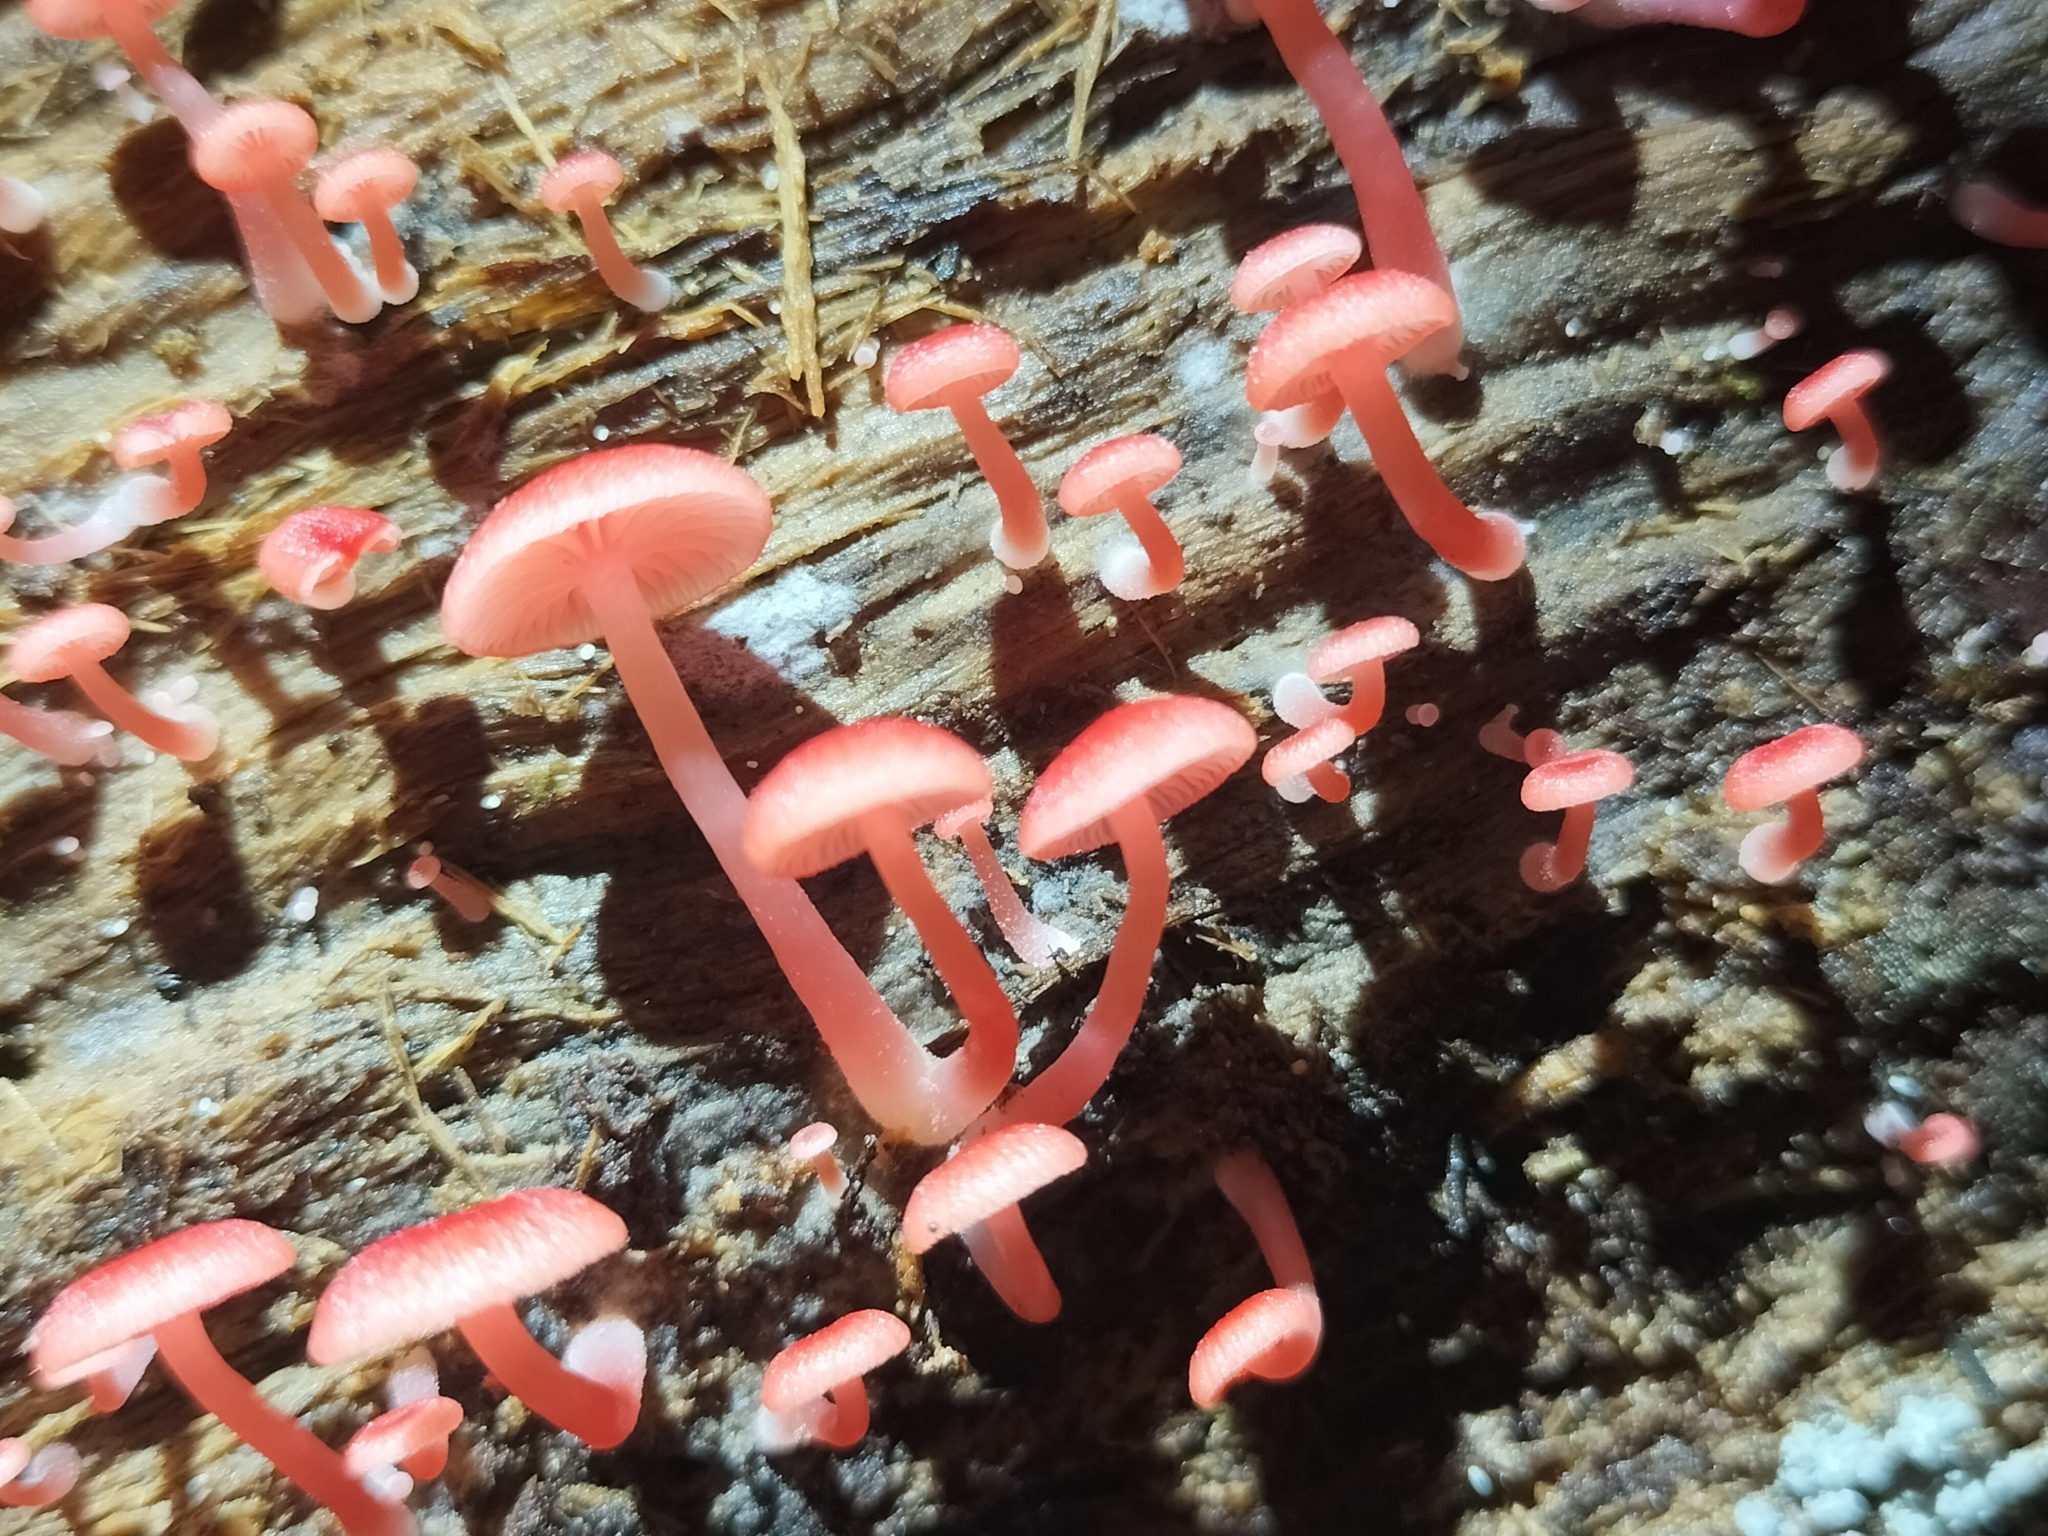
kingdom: Fungi
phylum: Basidiomycota
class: Agaricomycetes
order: Agaricales
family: Mycenaceae
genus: Mycena
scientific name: Mycena roseilignicola
